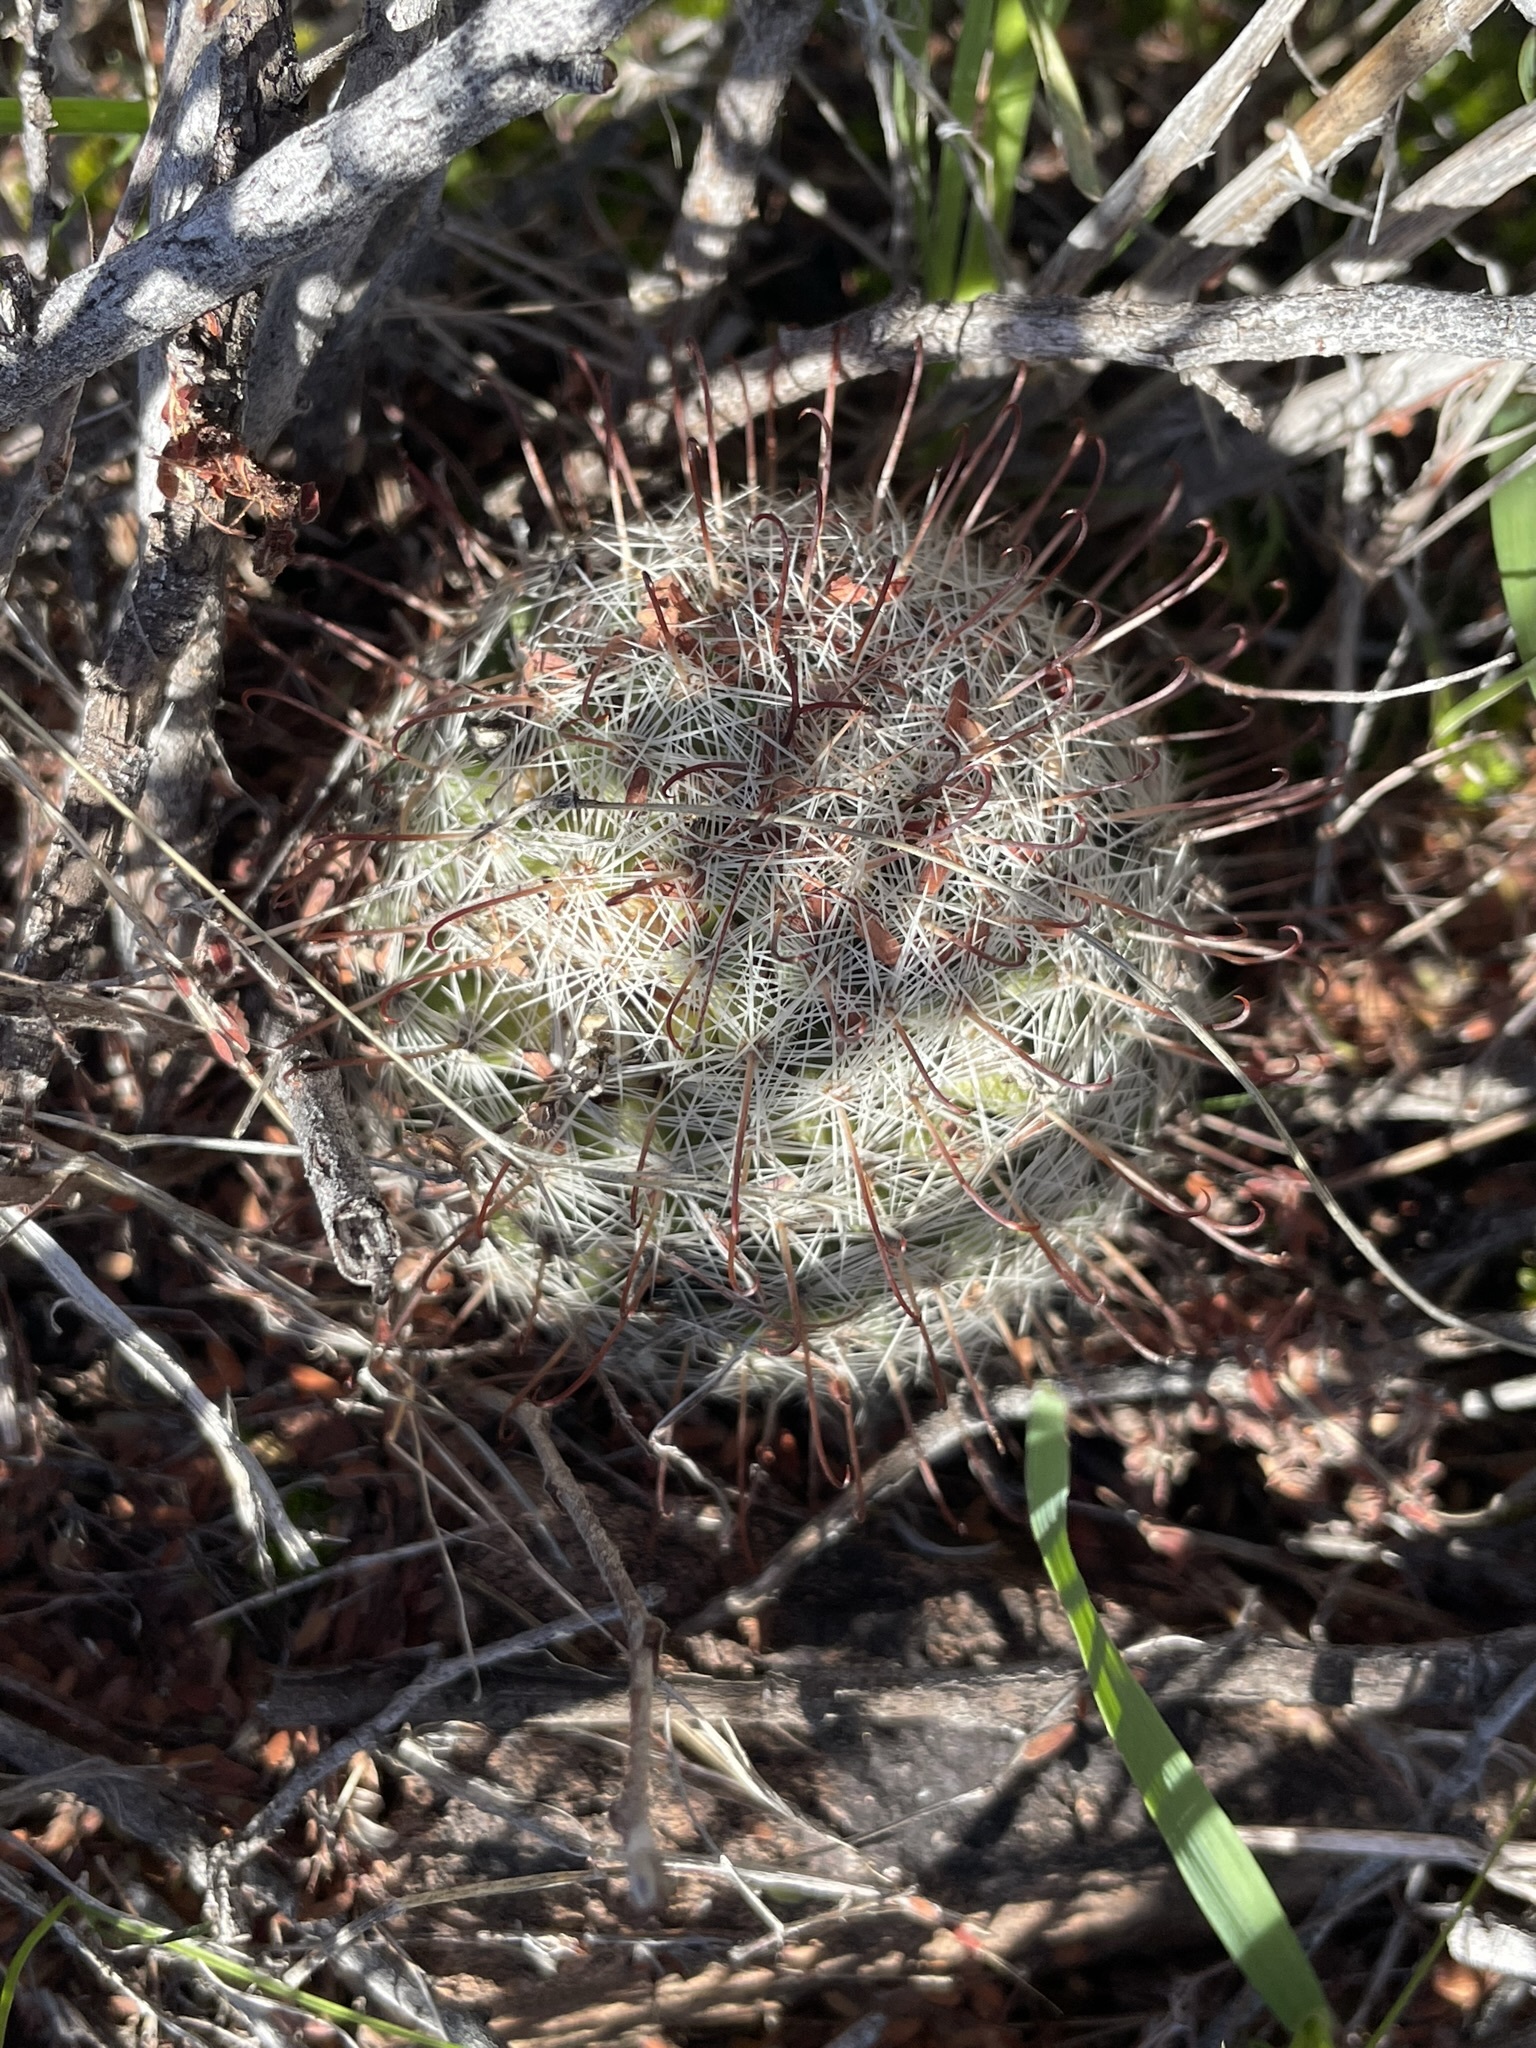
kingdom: Plantae
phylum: Tracheophyta
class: Magnoliopsida
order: Caryophyllales
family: Cactaceae
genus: Cochemiea
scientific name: Cochemiea grahamii
